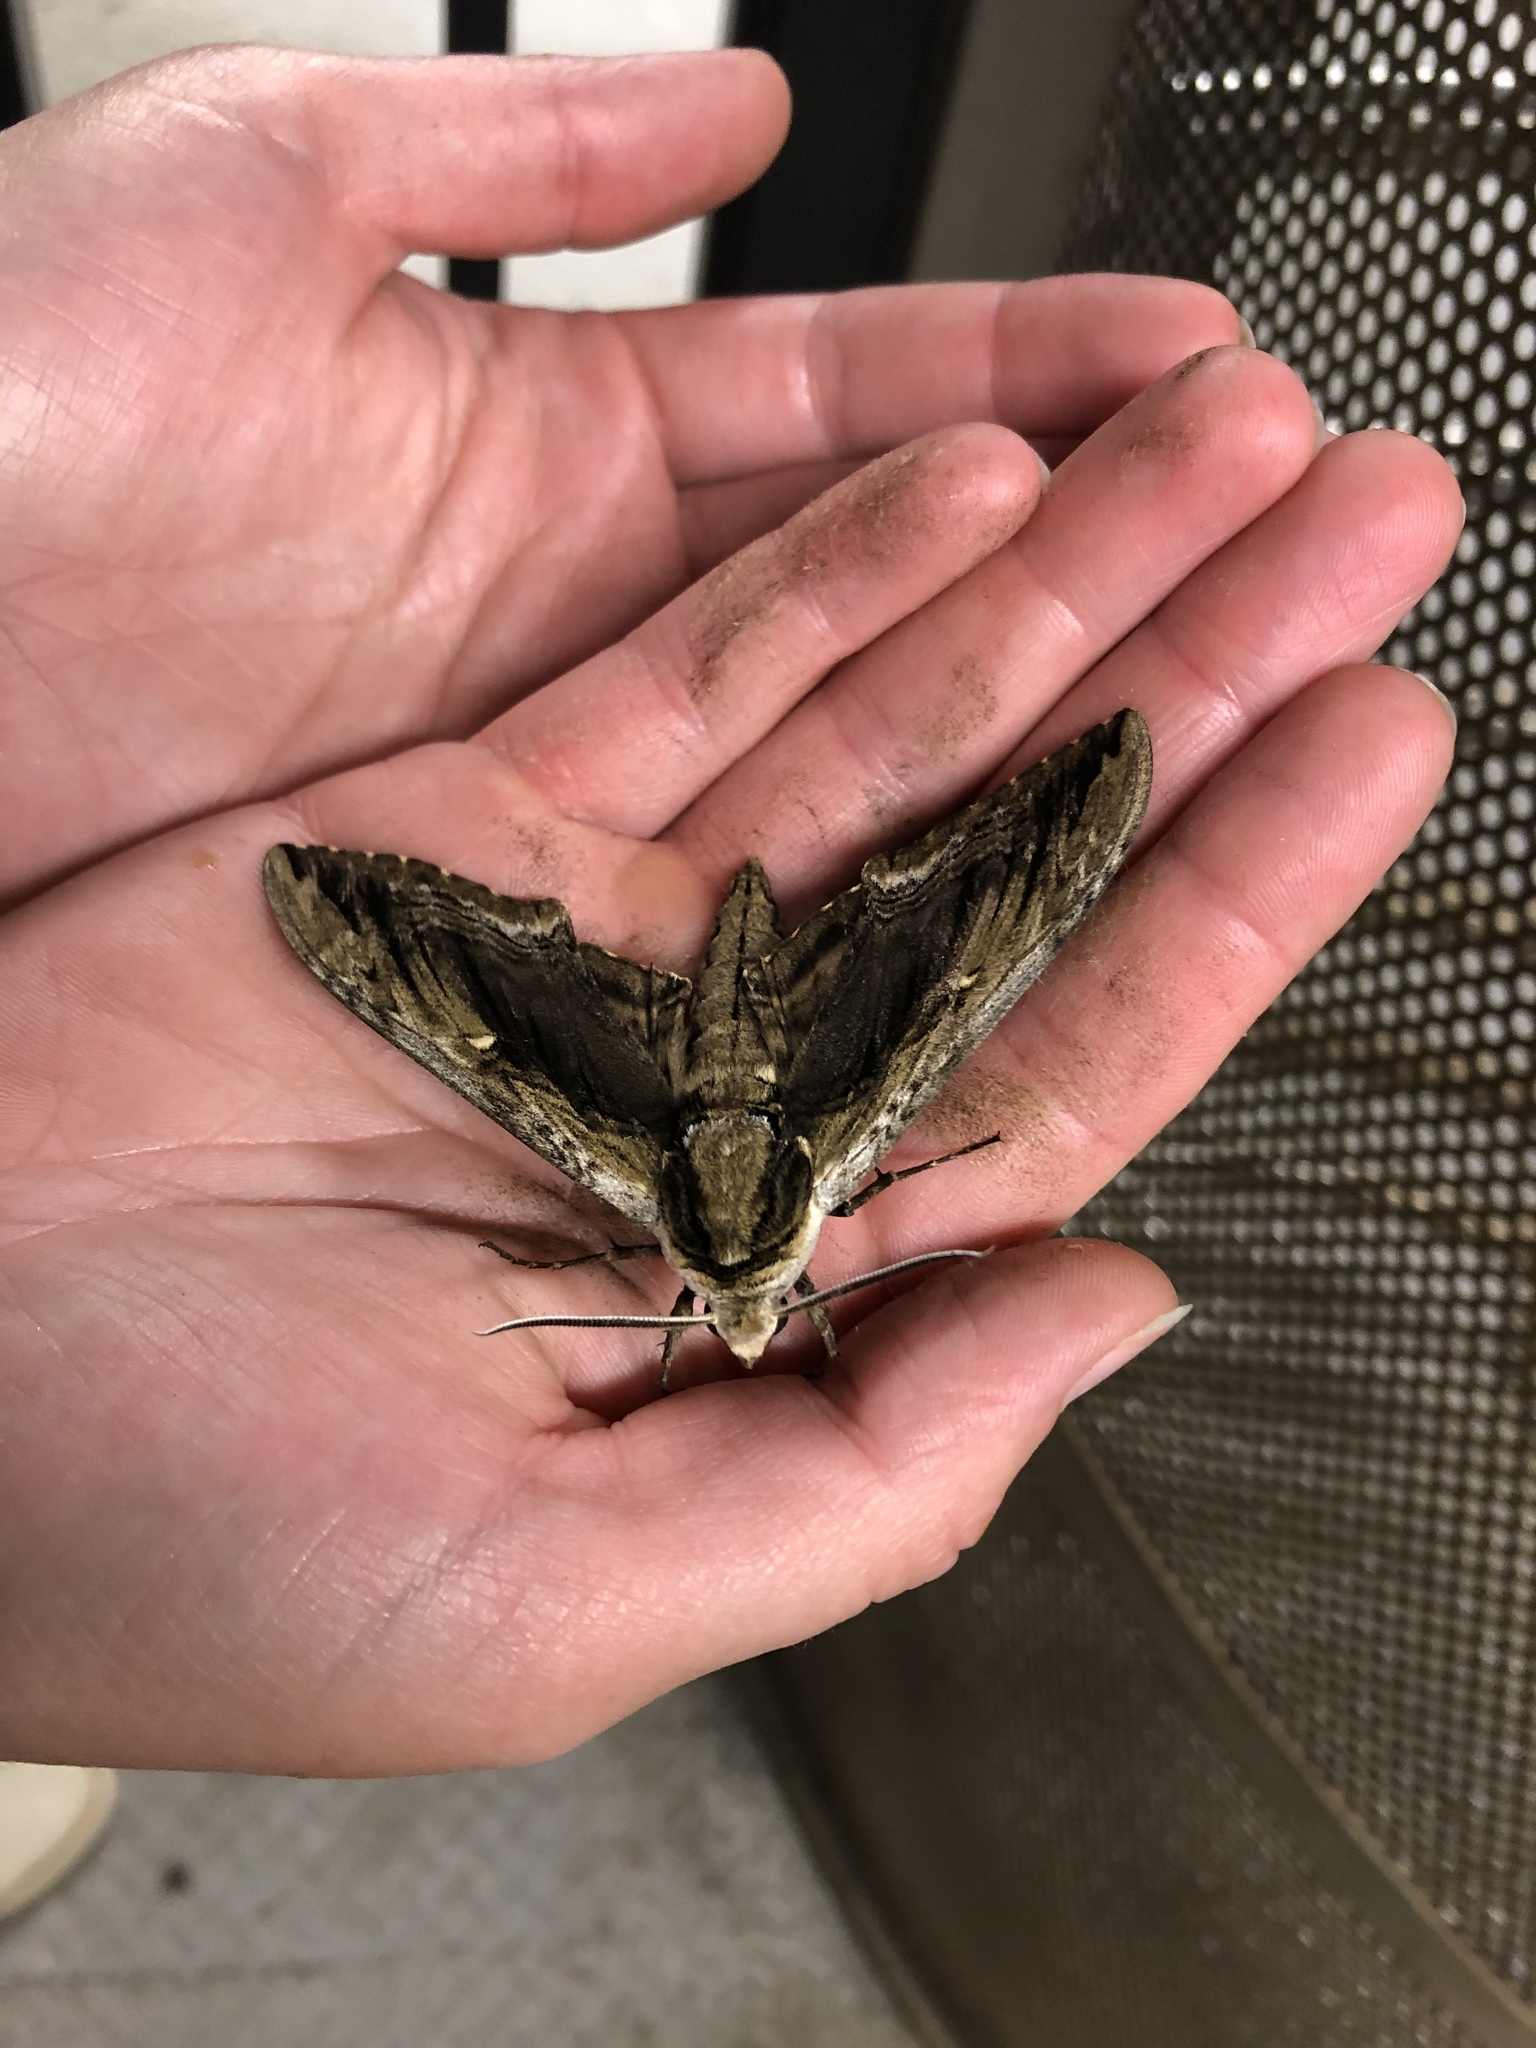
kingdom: Animalia
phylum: Arthropoda
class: Insecta
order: Lepidoptera
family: Sphingidae
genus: Ceratomia
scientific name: Ceratomia amyntor
